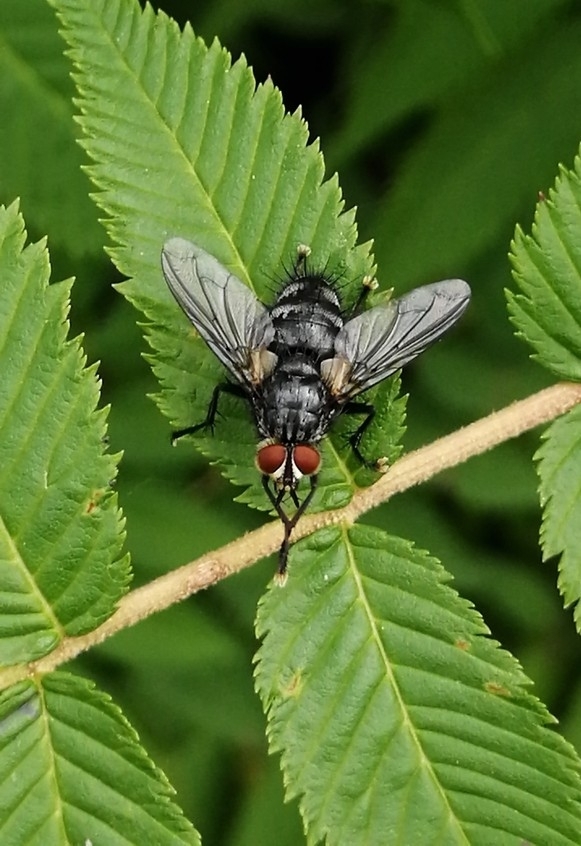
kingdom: Animalia
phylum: Arthropoda
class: Insecta
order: Diptera
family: Tachinidae
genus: Eurithia
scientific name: Eurithia connivens
